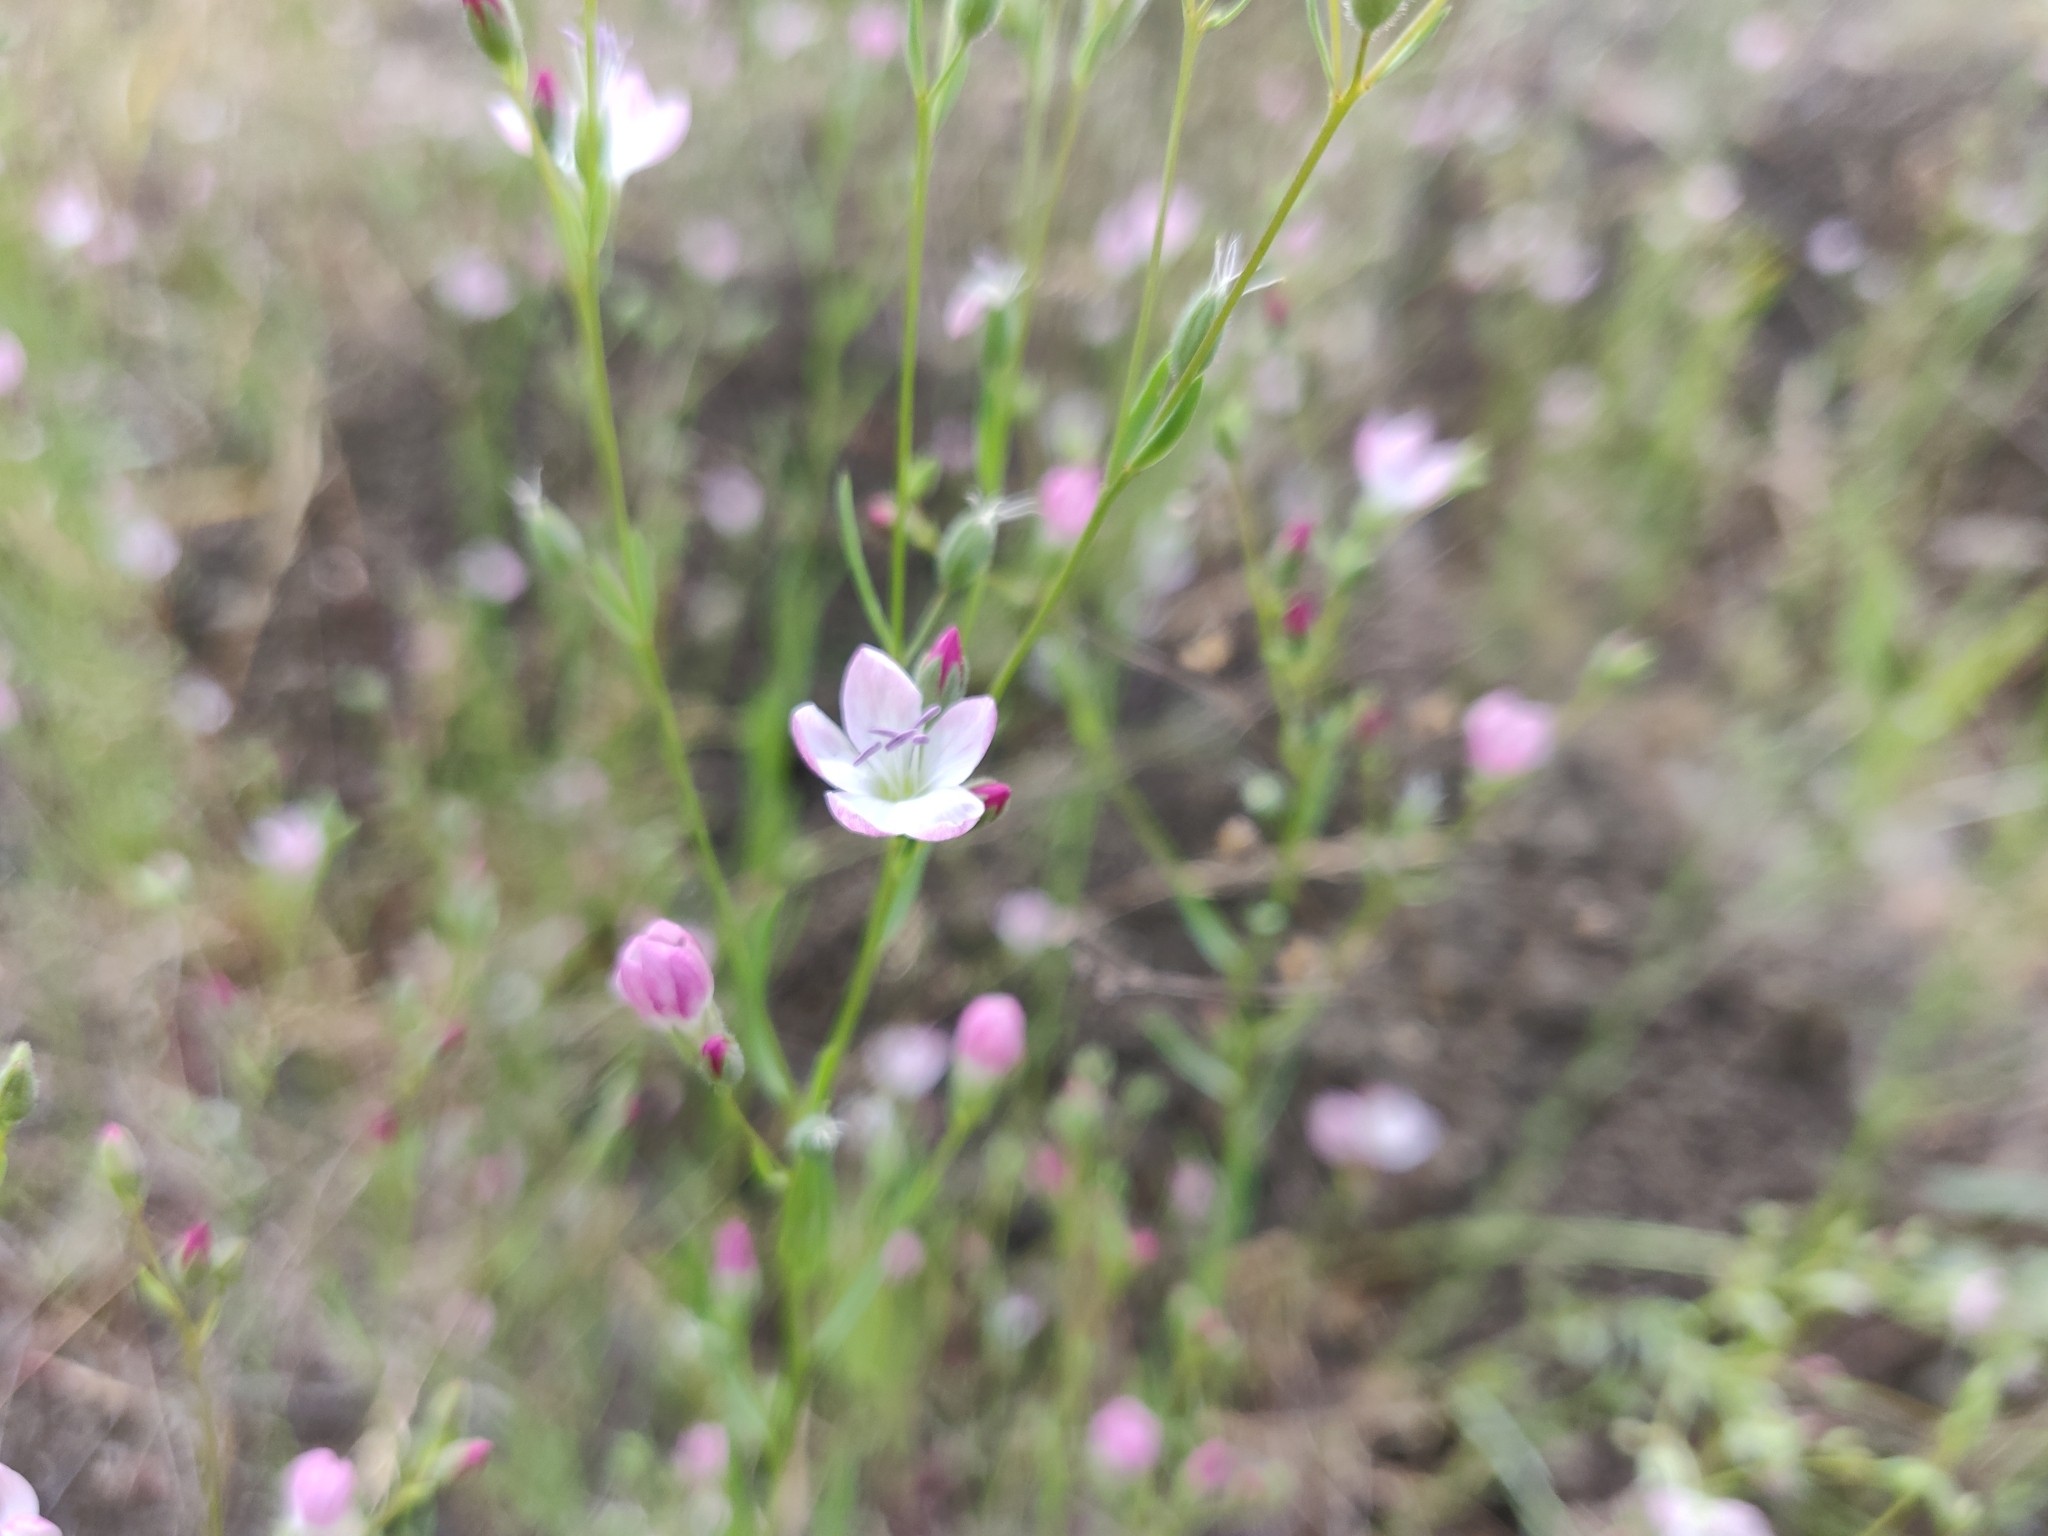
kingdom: Plantae
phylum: Tracheophyta
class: Magnoliopsida
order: Malpighiales
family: Linaceae
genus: Hesperolinon
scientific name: Hesperolinon congestum
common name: Marin dwarf-flax
